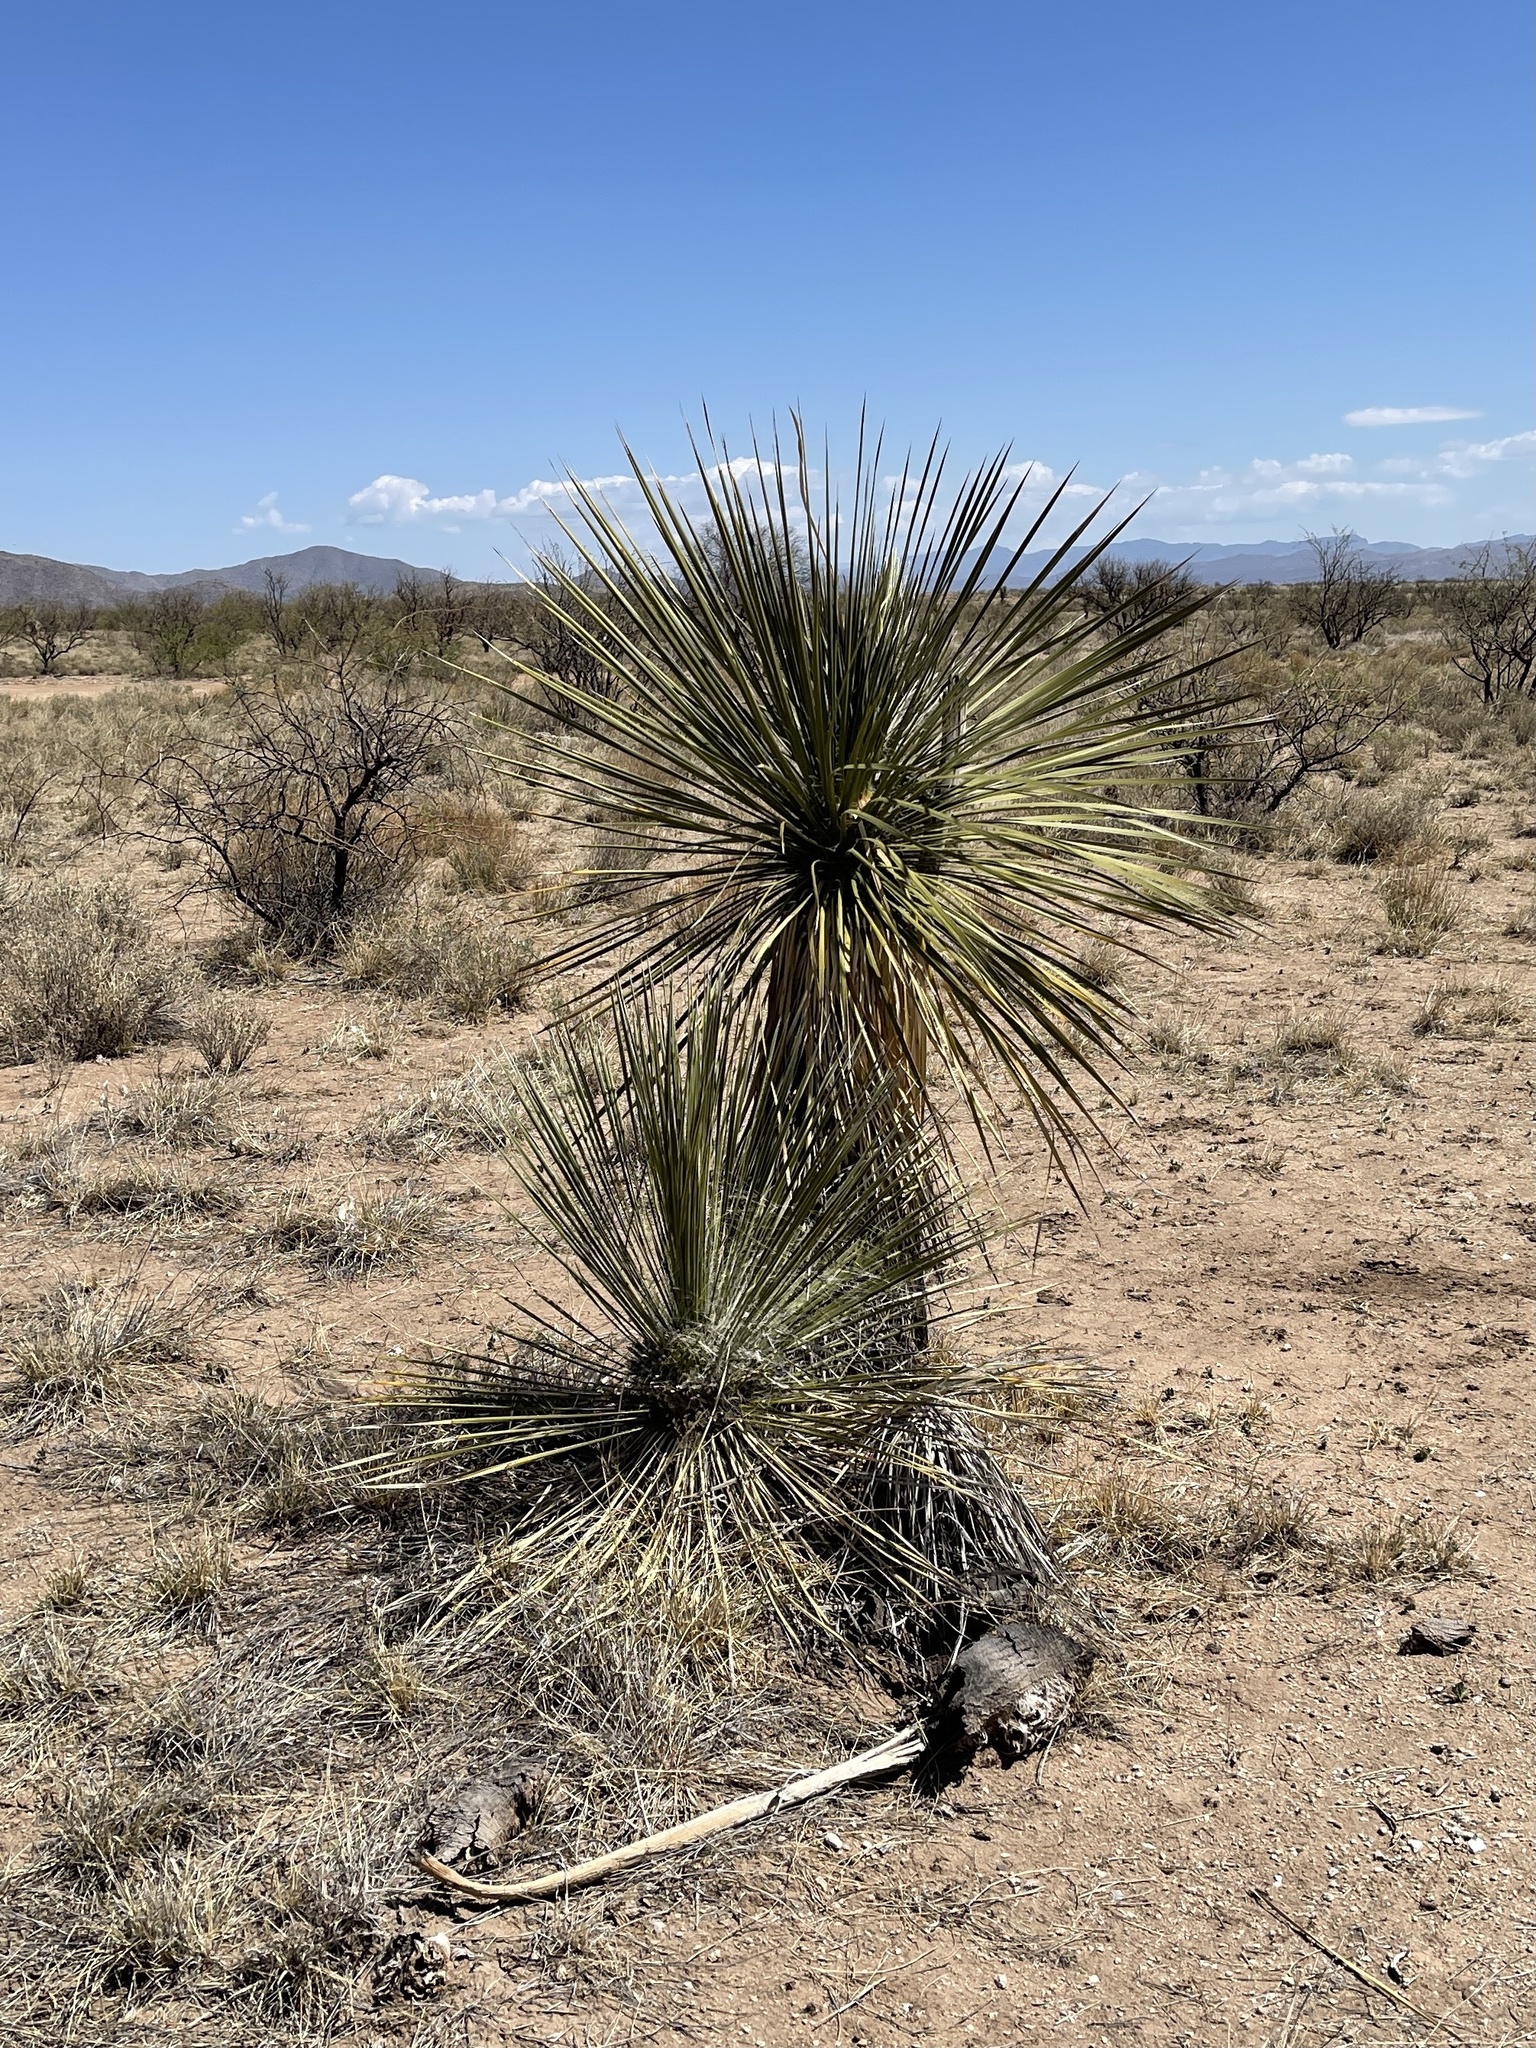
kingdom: Plantae
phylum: Tracheophyta
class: Liliopsida
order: Asparagales
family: Asparagaceae
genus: Yucca
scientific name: Yucca elata
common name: Palmella
